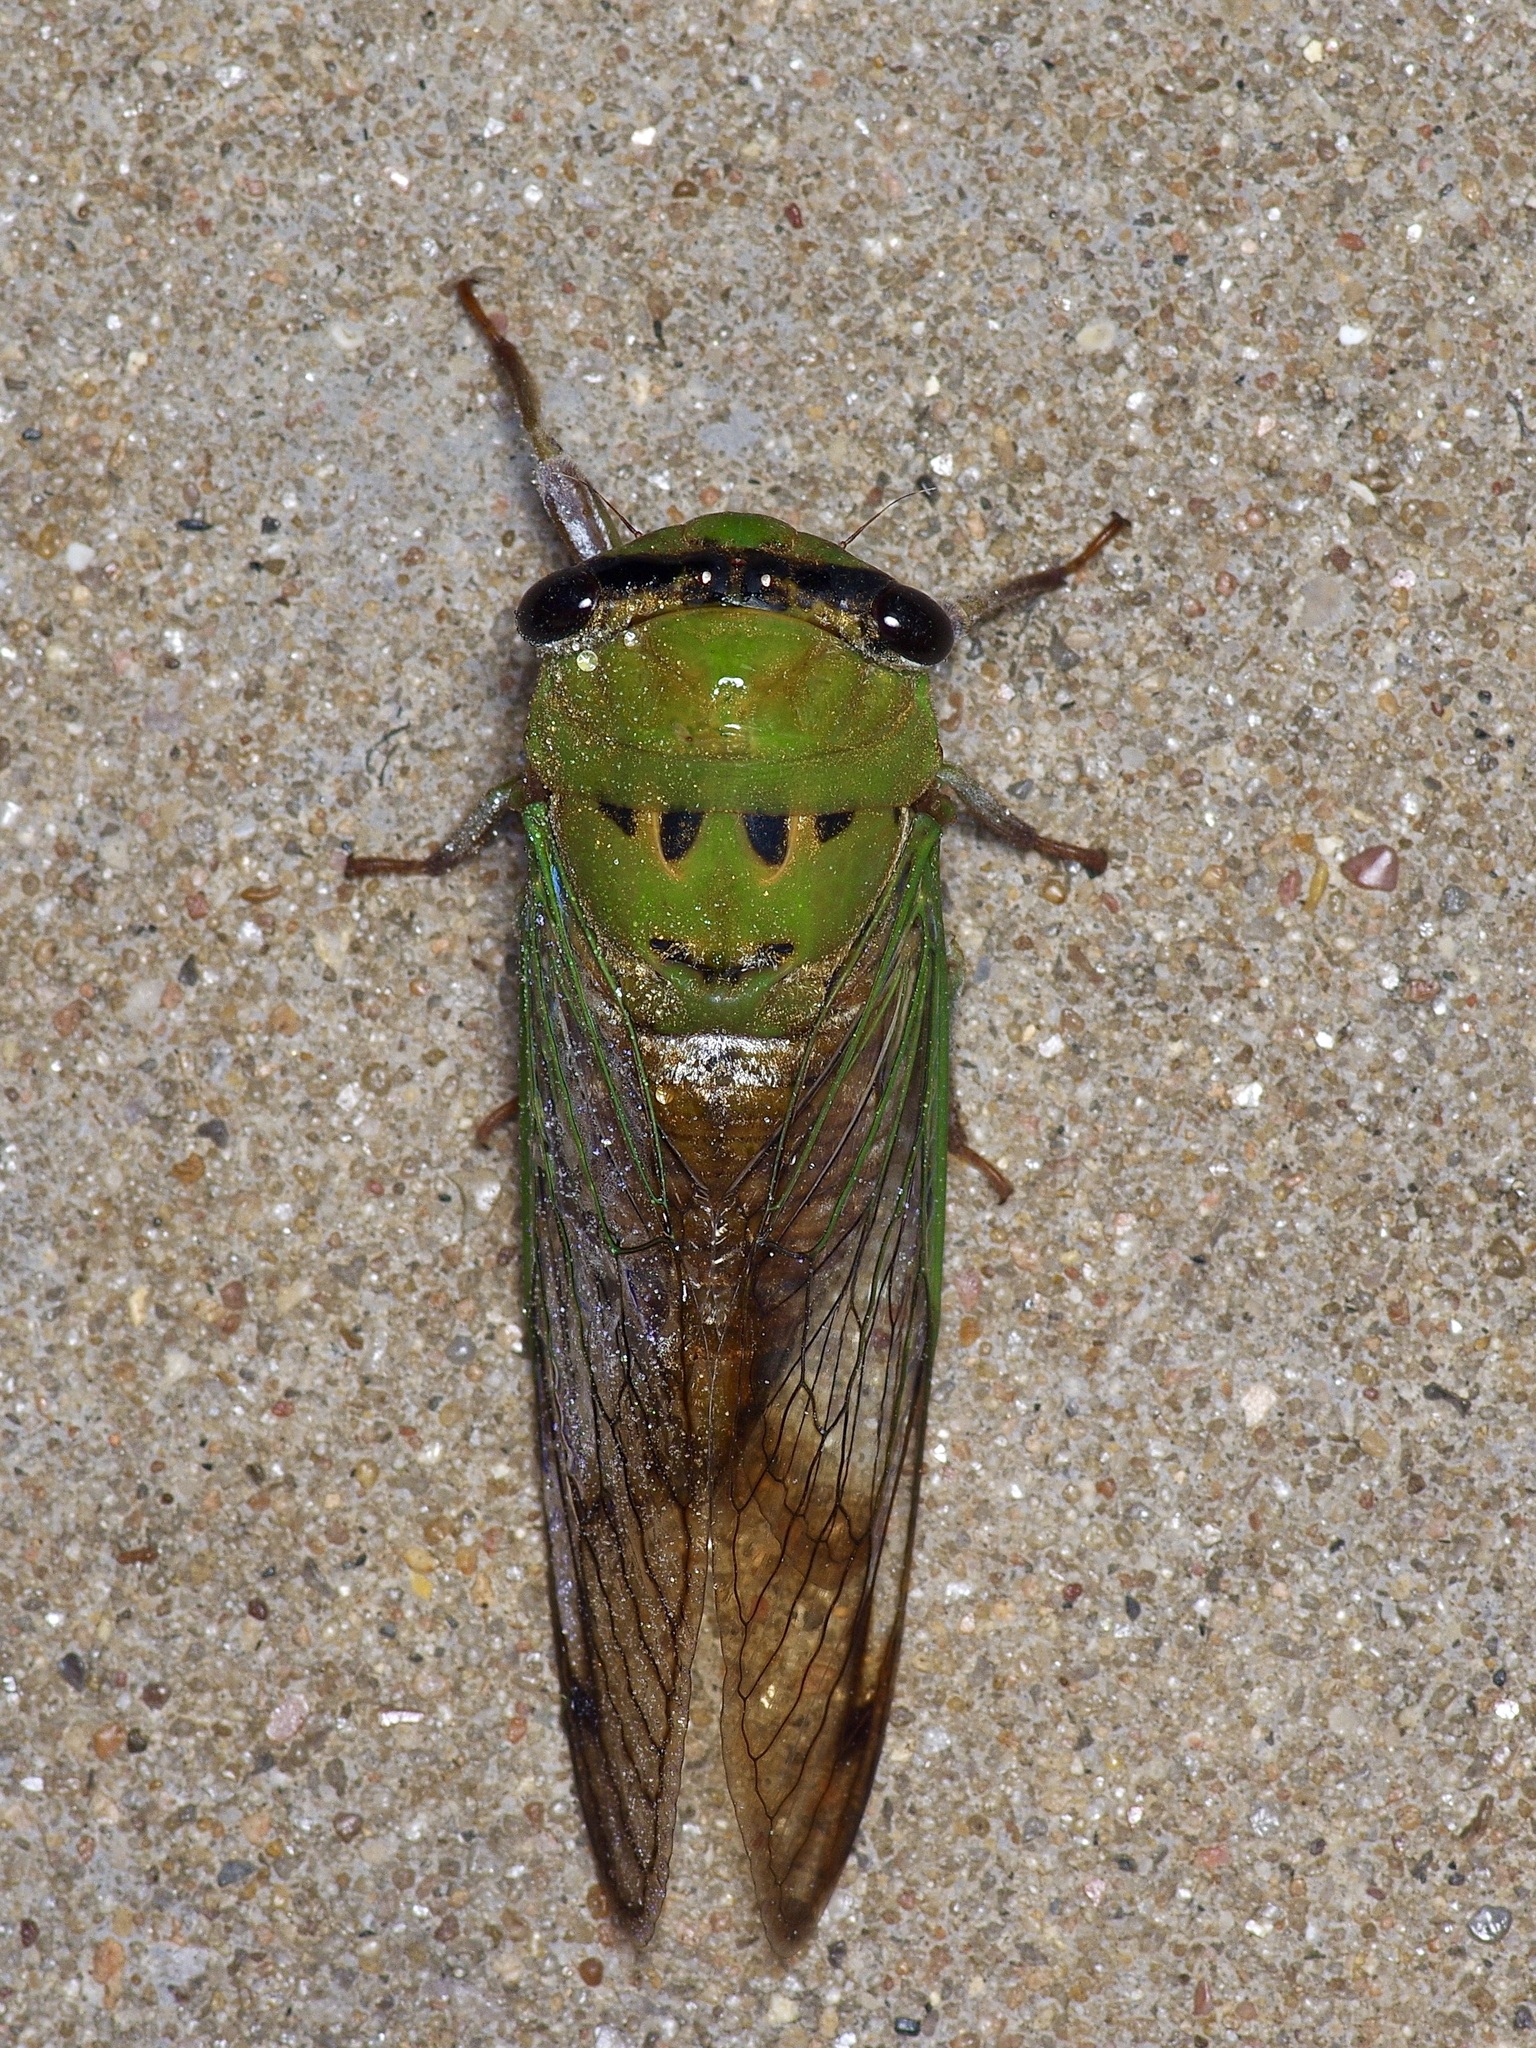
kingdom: Animalia
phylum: Arthropoda
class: Insecta
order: Hemiptera
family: Cicadidae
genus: Neotibicen
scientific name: Neotibicen superbus
